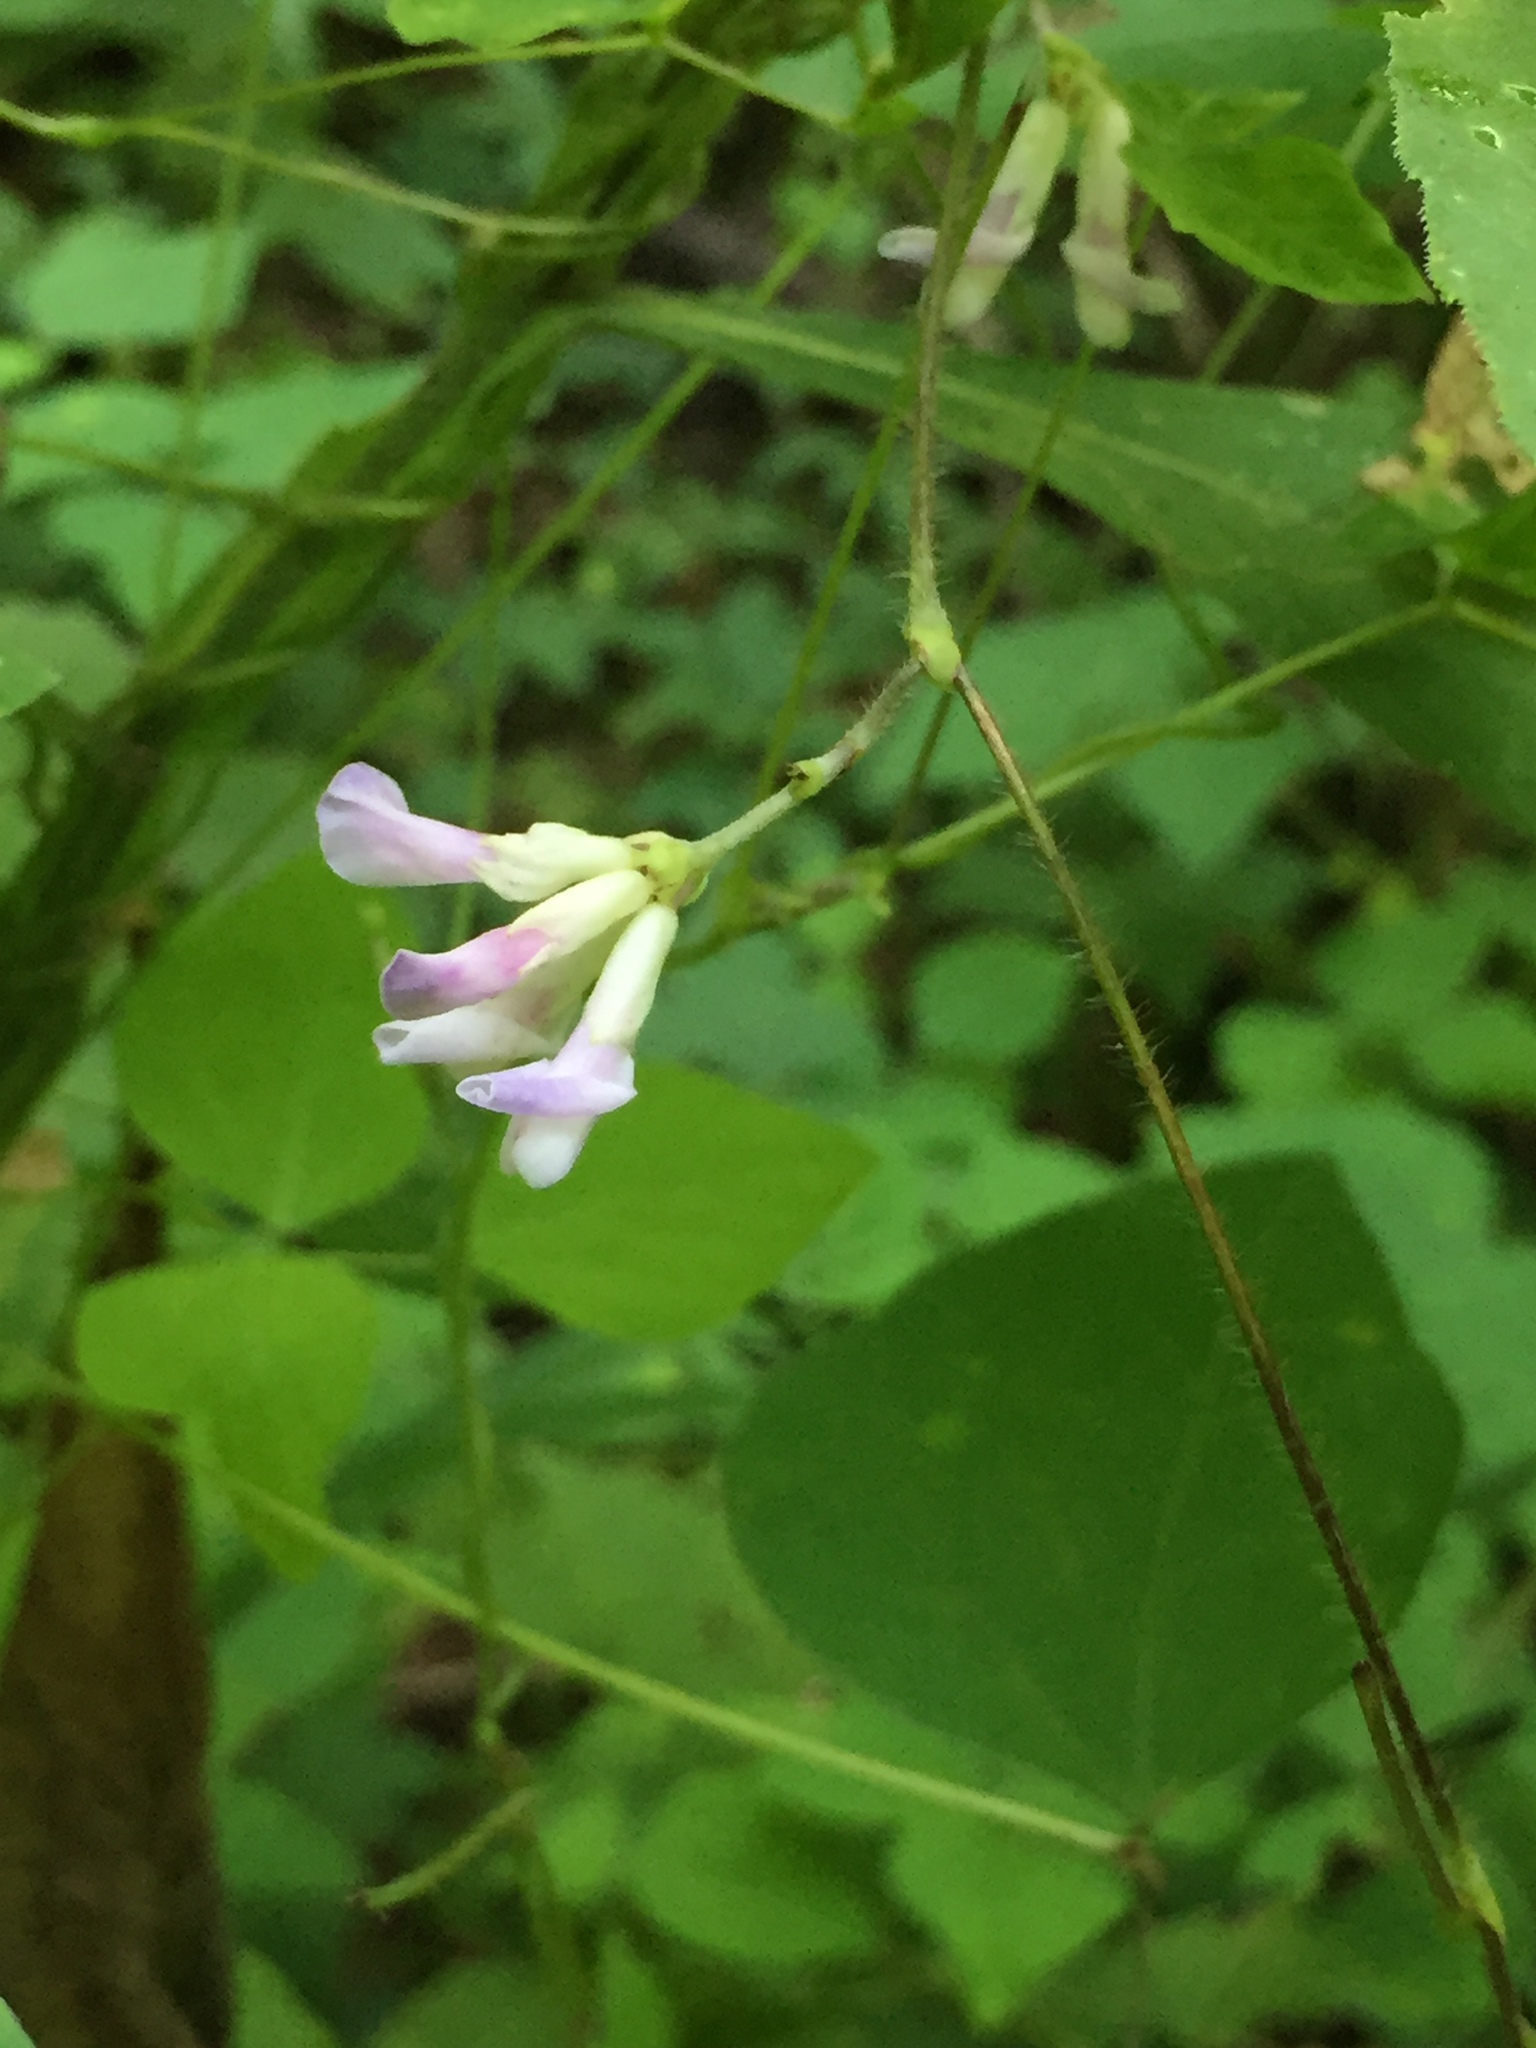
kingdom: Plantae
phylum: Tracheophyta
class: Magnoliopsida
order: Fabales
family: Fabaceae
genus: Amphicarpaea
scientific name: Amphicarpaea bracteata
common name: American hog peanut
